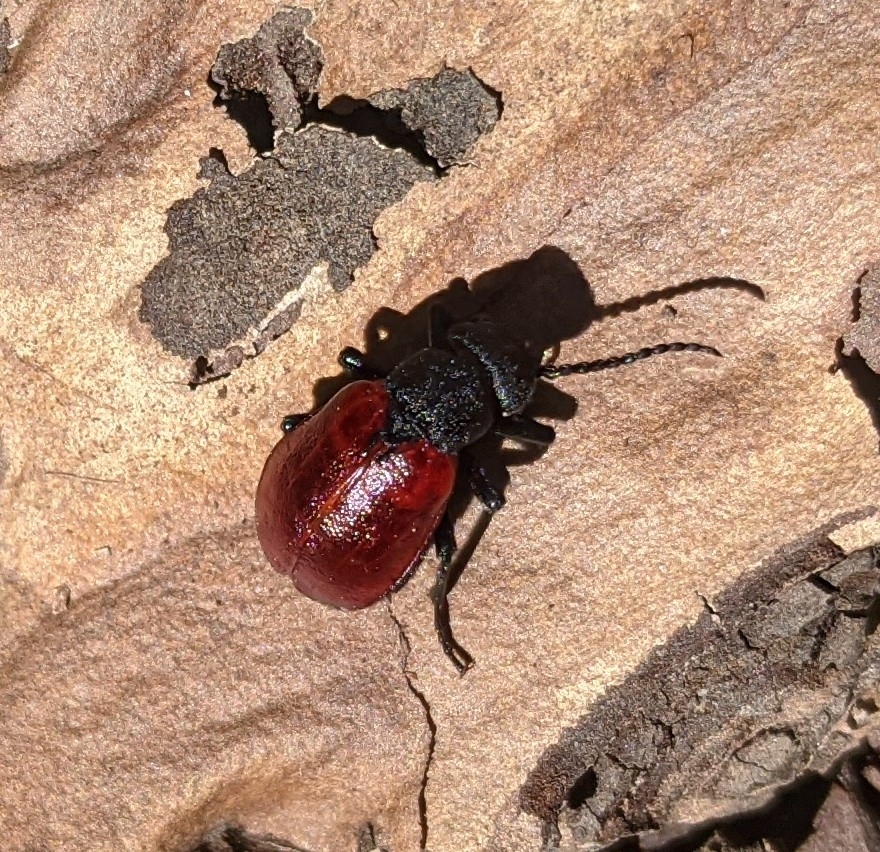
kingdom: Animalia
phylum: Arthropoda
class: Insecta
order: Coleoptera
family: Meloidae
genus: Tricrania
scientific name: Tricrania sanguinipennis
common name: Blood-winged blister beetle
